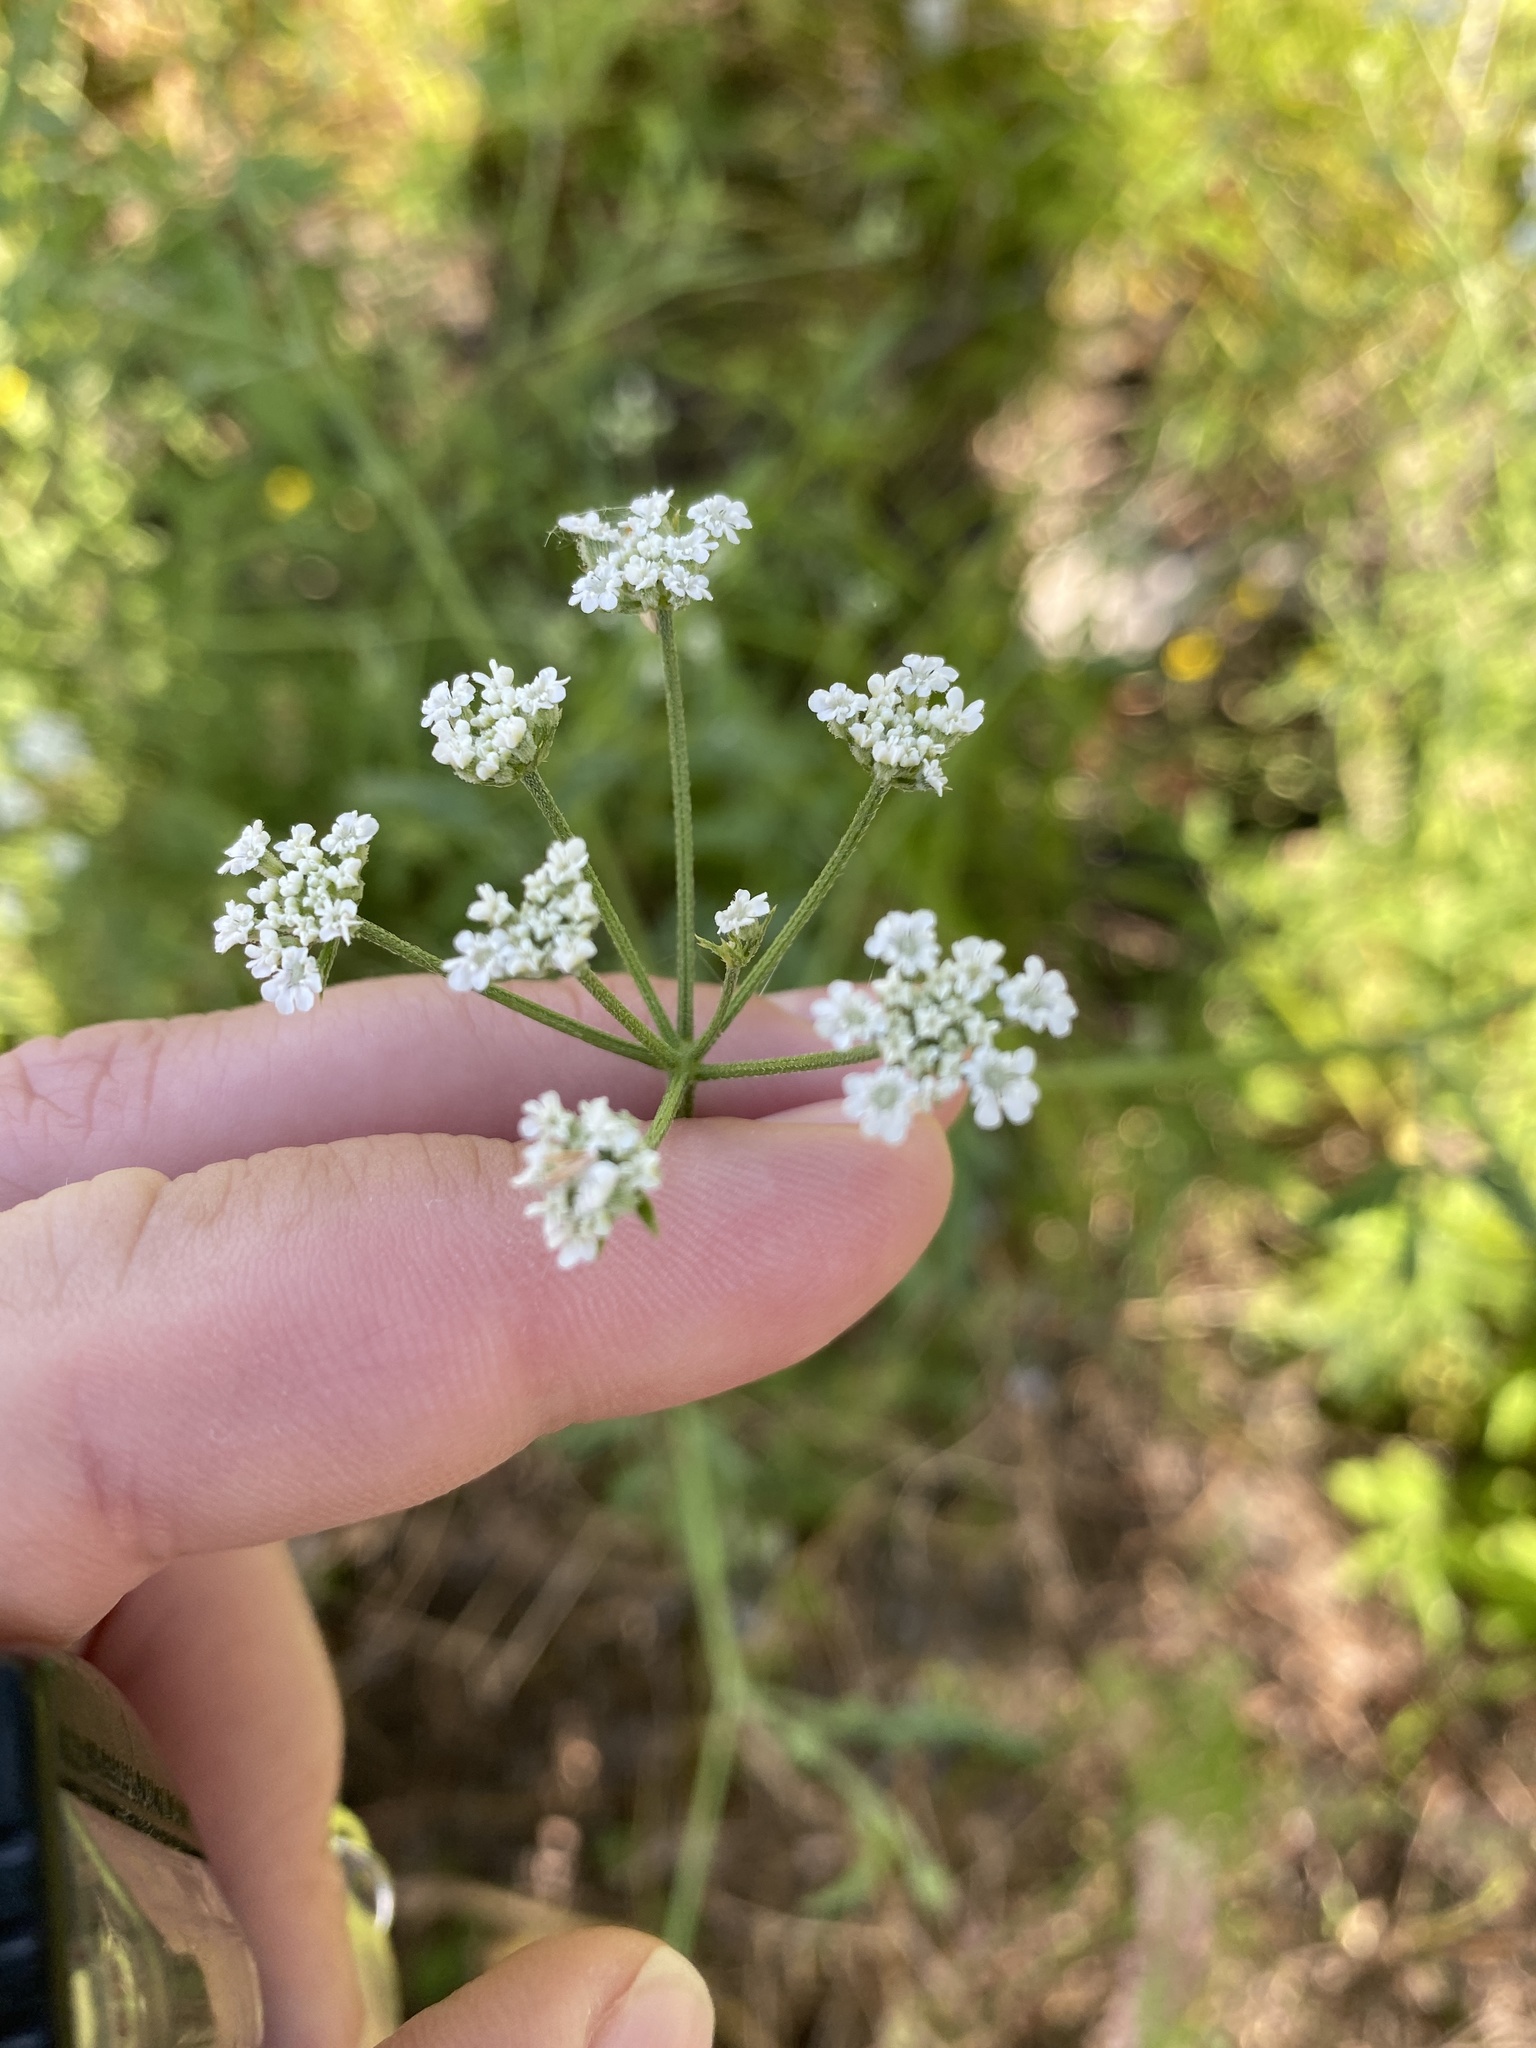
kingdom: Plantae
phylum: Tracheophyta
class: Magnoliopsida
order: Apiales
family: Apiaceae
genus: Torilis
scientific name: Torilis arvensis
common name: Spreading hedge-parsley
